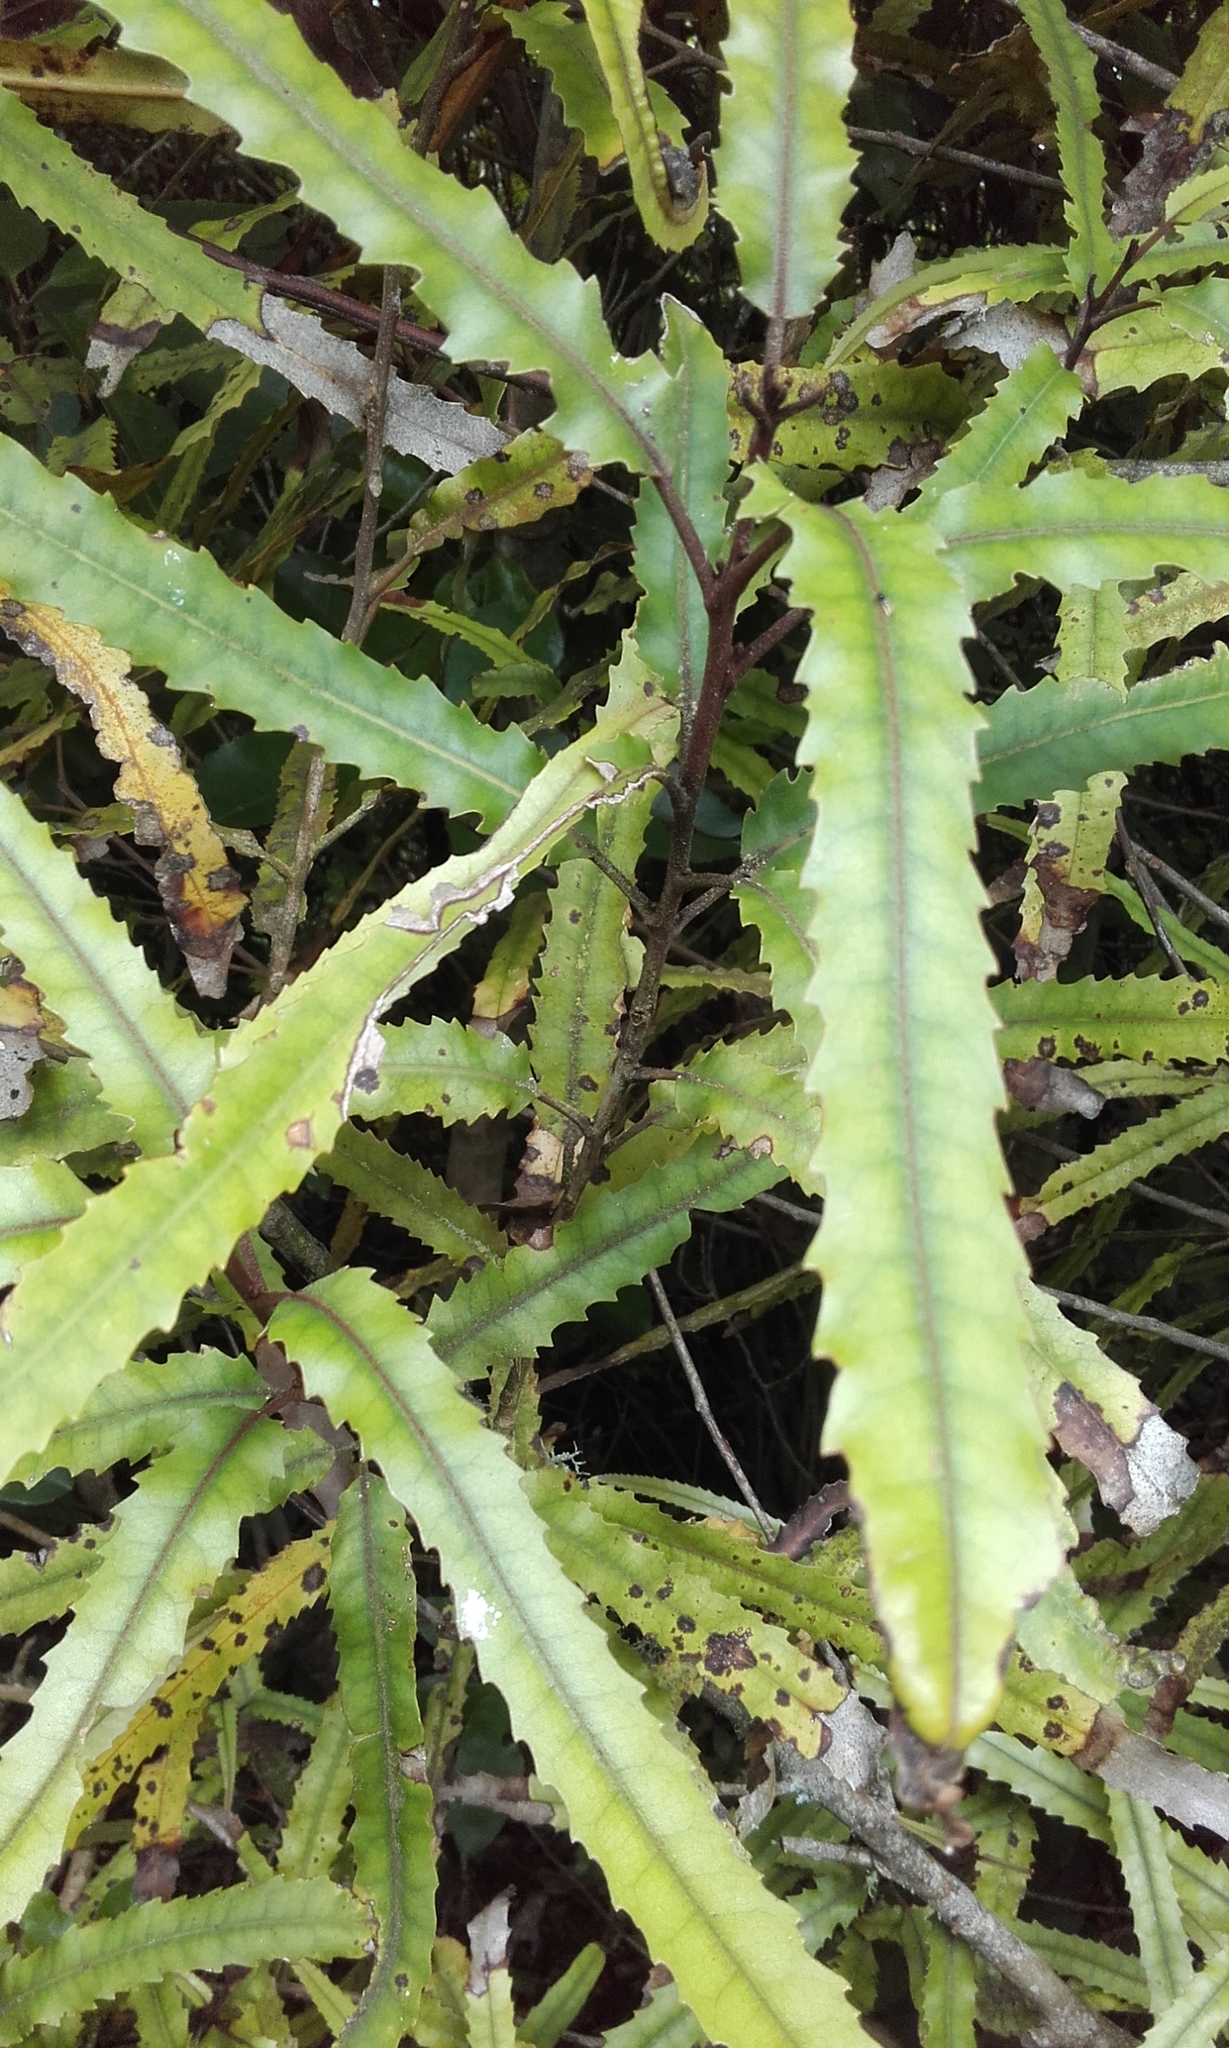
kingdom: Plantae
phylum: Tracheophyta
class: Magnoliopsida
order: Proteales
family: Proteaceae
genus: Knightia
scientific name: Knightia excelsa
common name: New zealand-honeysuckle
